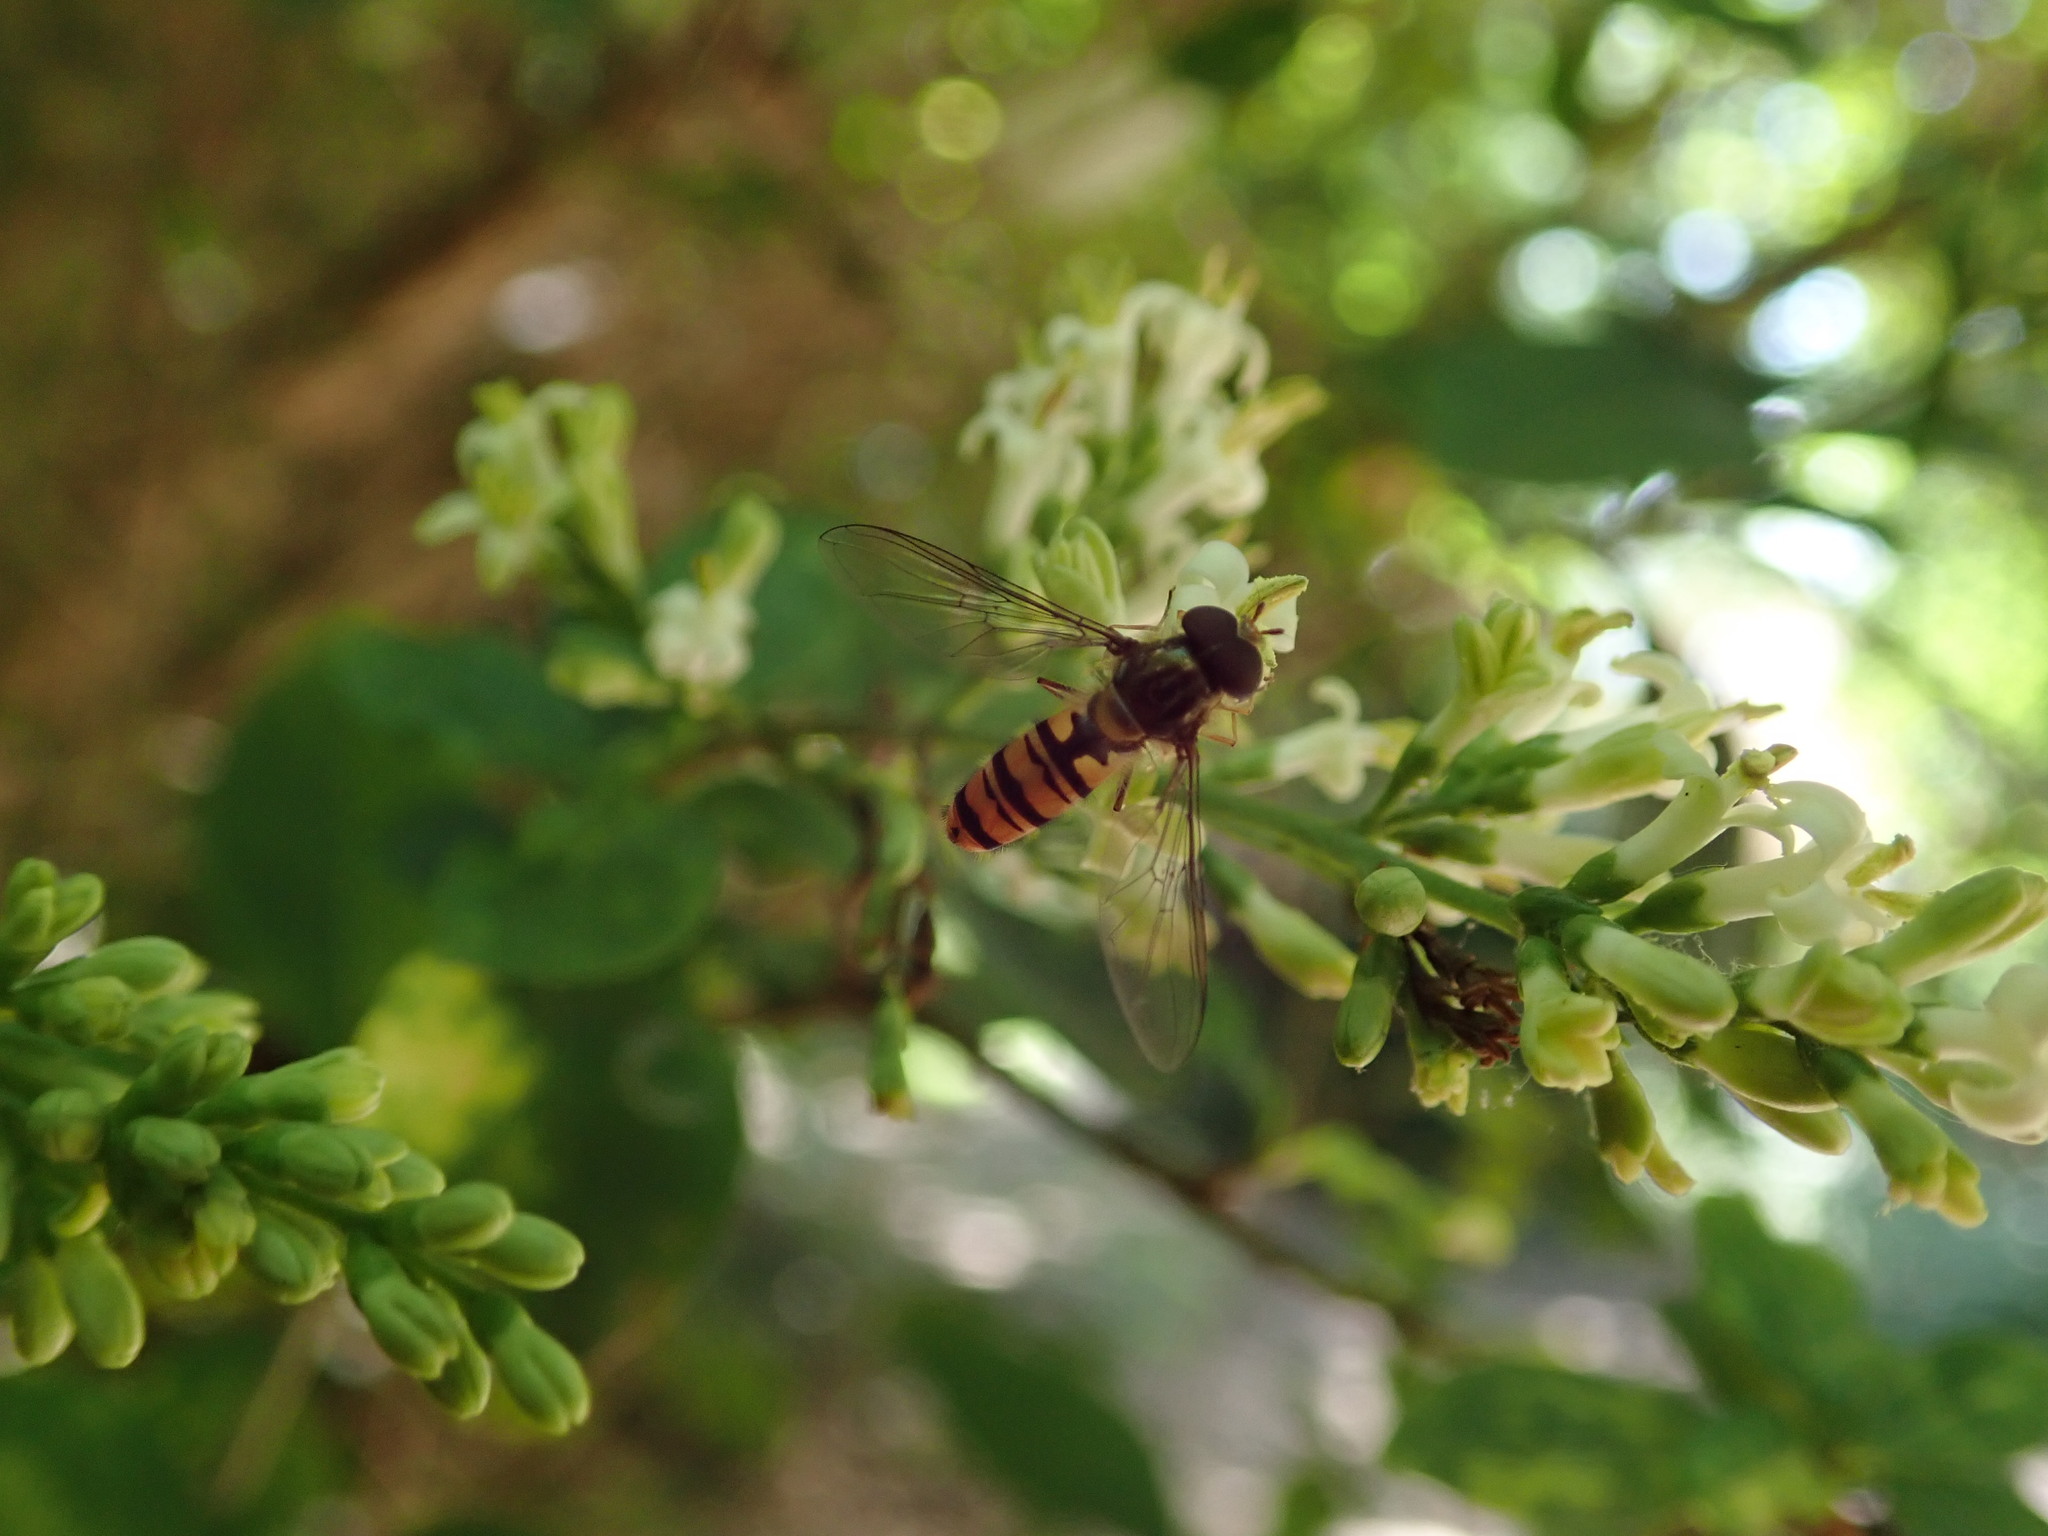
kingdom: Animalia
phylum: Arthropoda
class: Insecta
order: Diptera
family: Syrphidae
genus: Episyrphus
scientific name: Episyrphus balteatus
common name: Marmalade hoverfly
